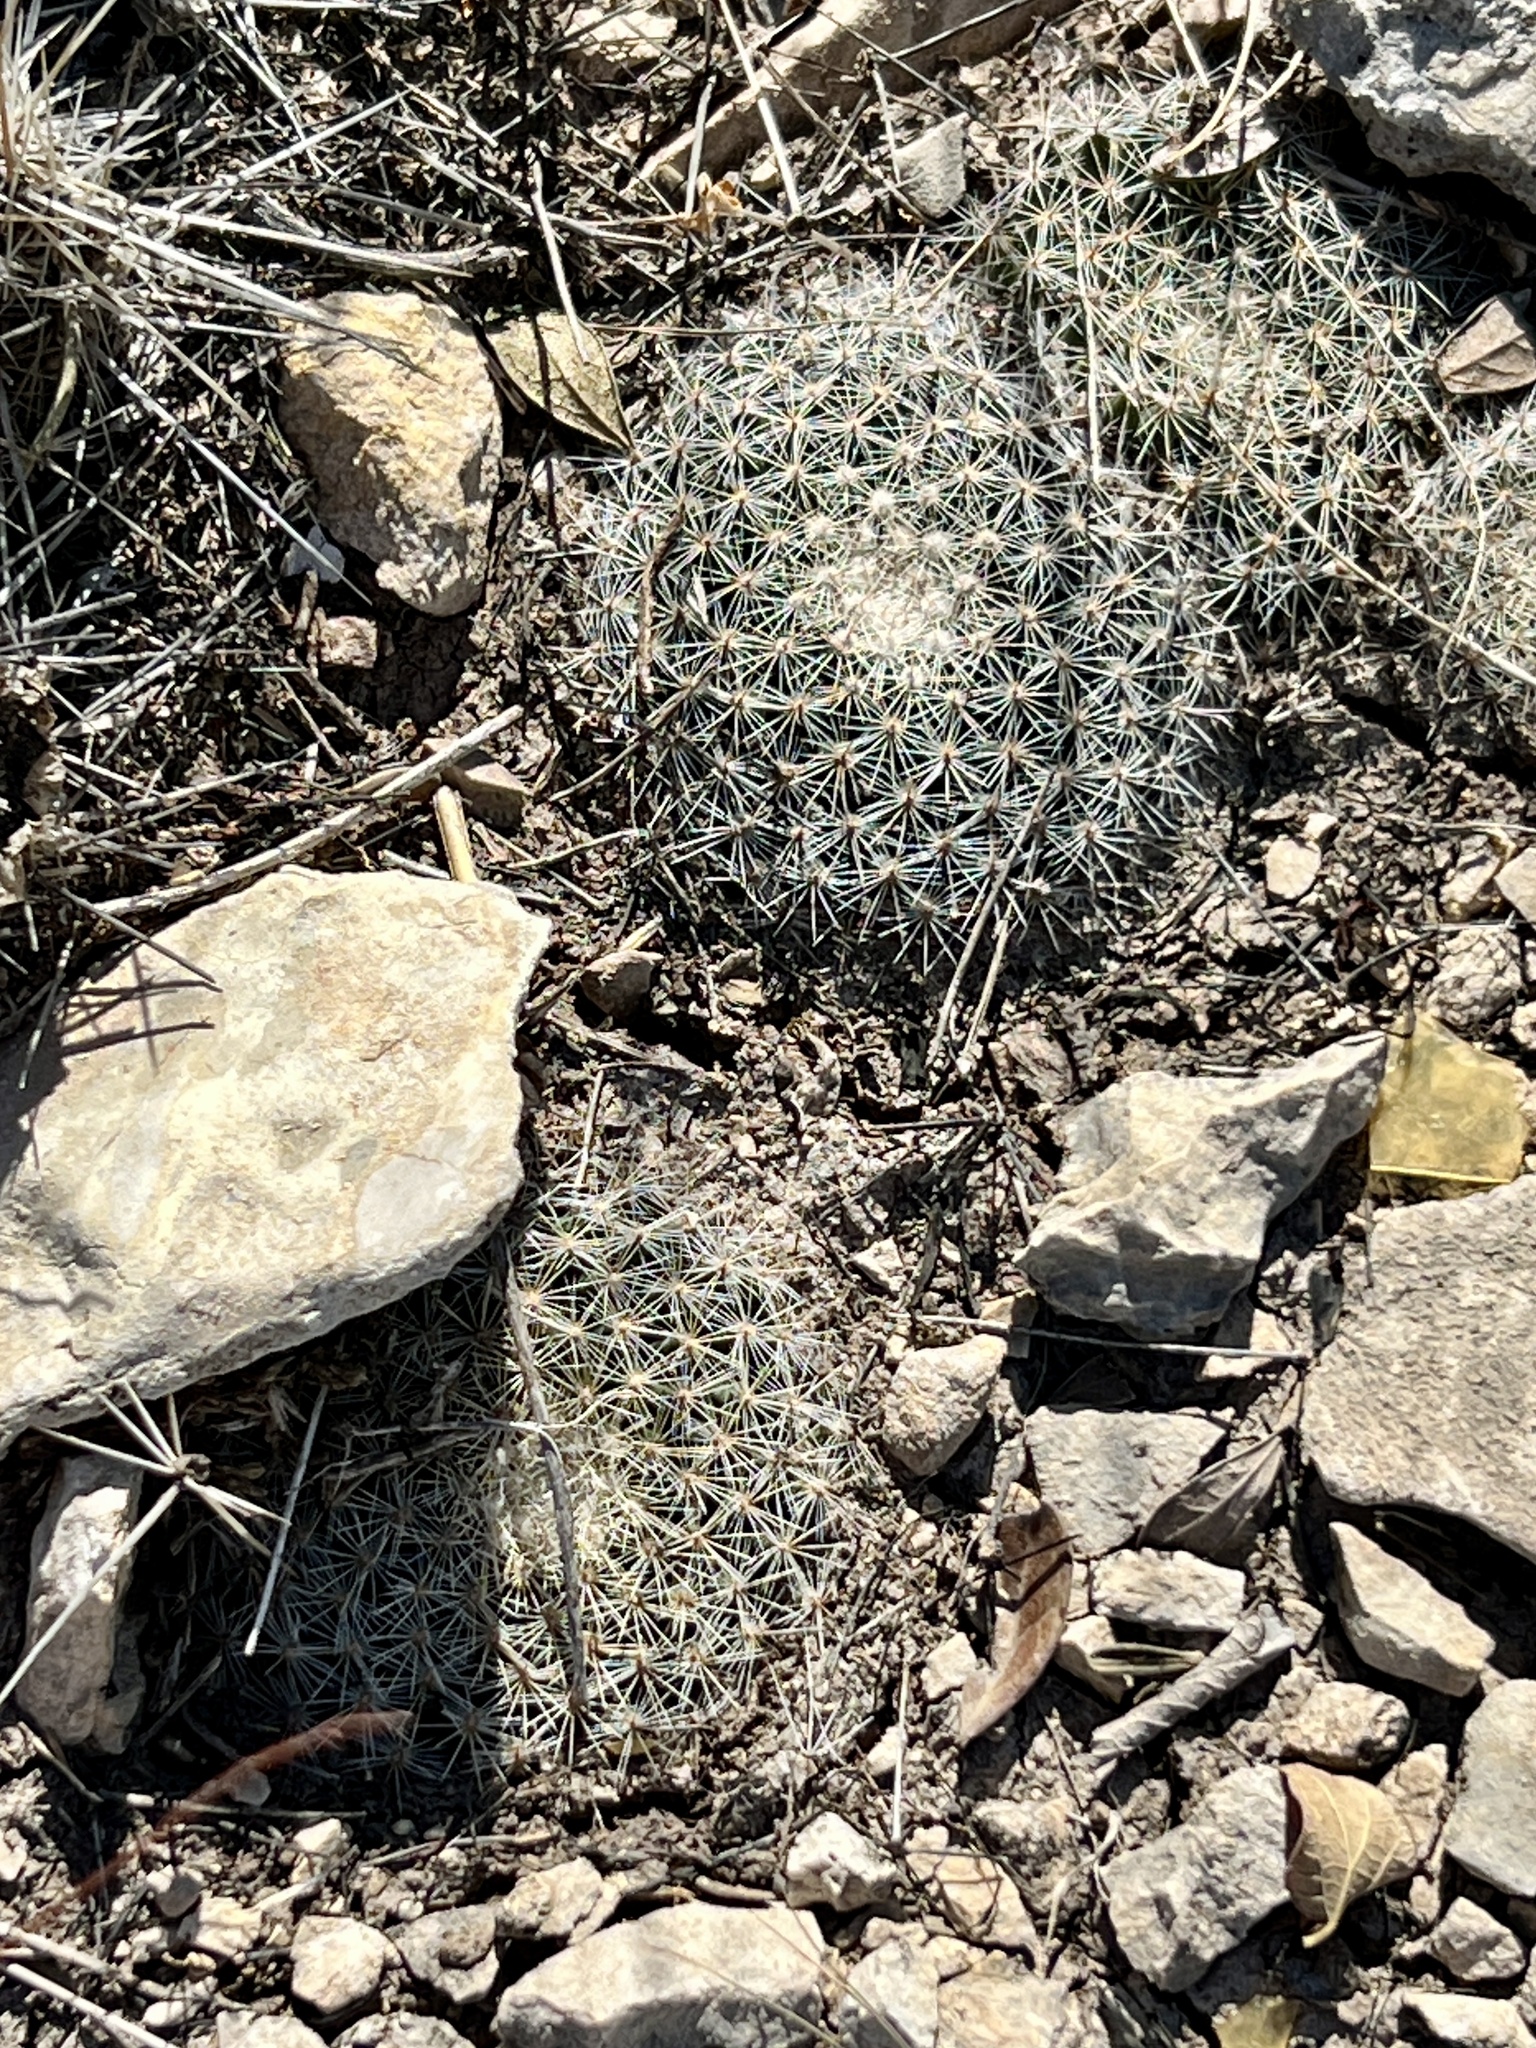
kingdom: Plantae
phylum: Tracheophyta
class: Magnoliopsida
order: Caryophyllales
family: Cactaceae
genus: Mammillaria
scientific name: Mammillaria heyderi
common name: Little nipple cactus
